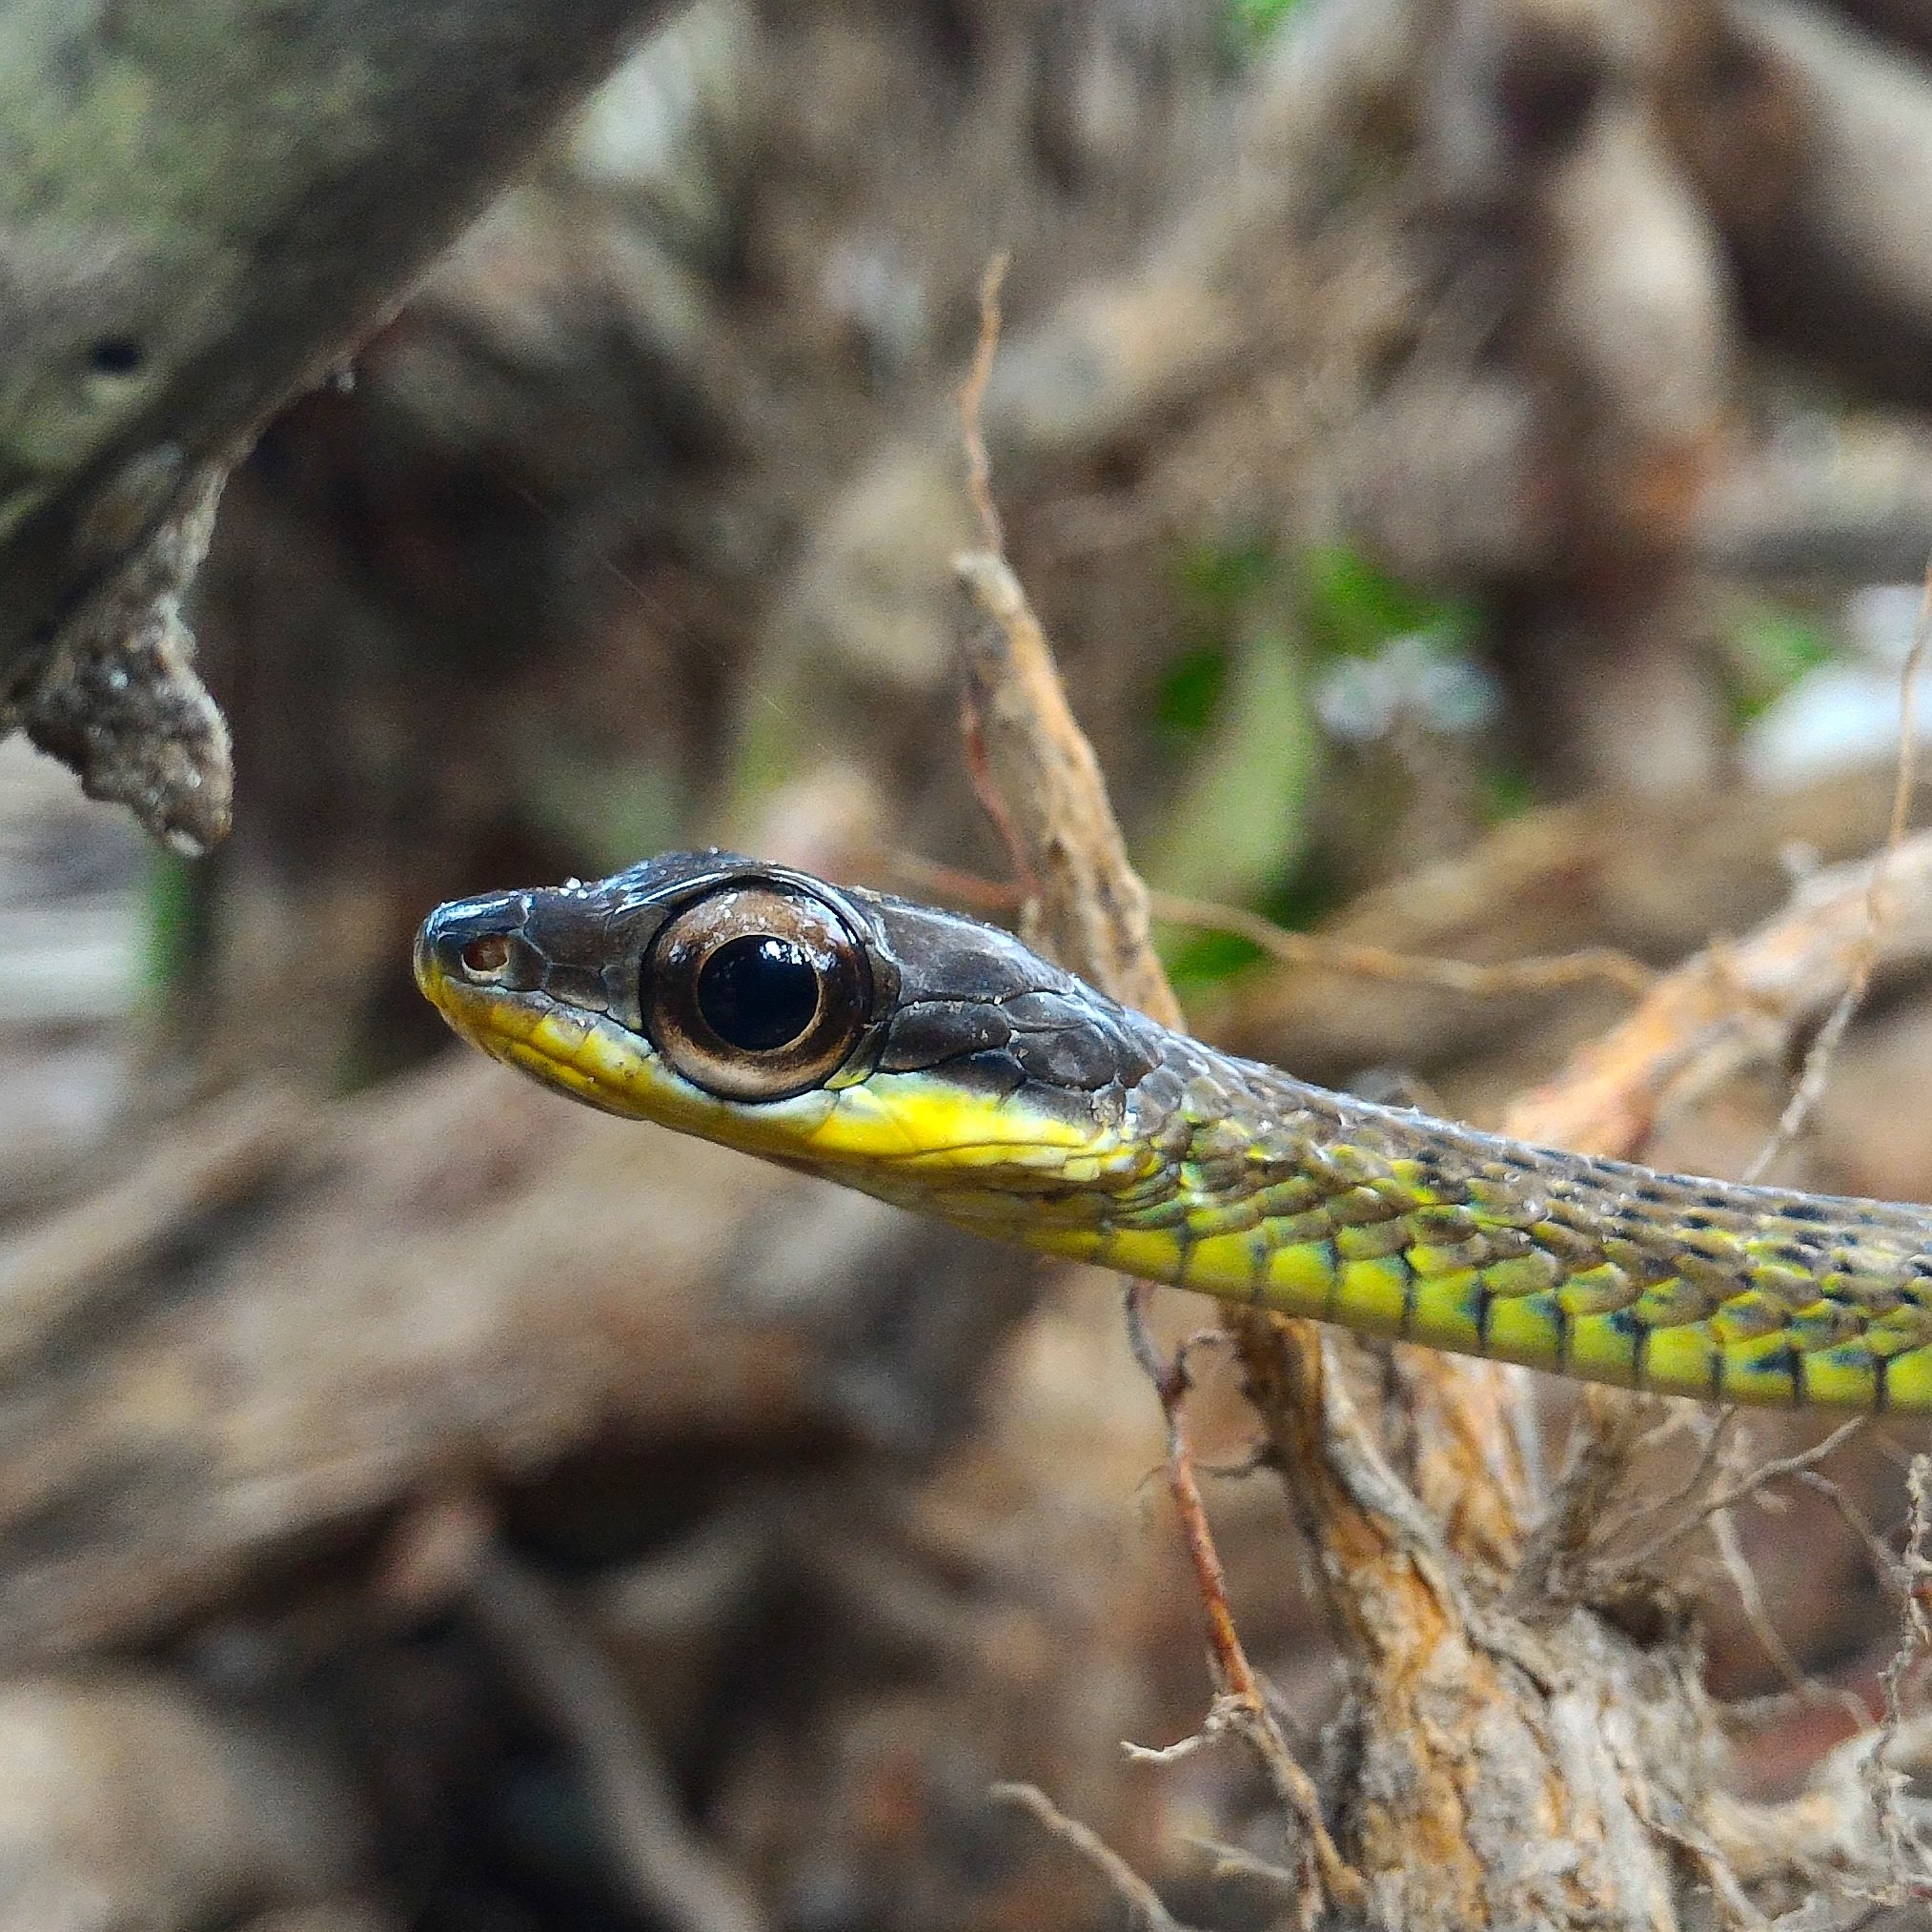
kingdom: Animalia
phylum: Chordata
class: Squamata
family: Colubridae
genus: Chironius
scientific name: Chironius bicarinatus
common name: Two-headed sipo
